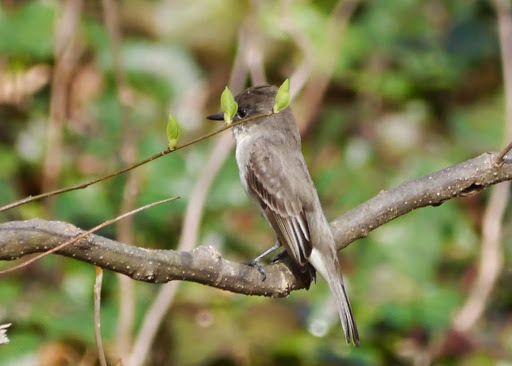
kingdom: Animalia
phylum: Chordata
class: Aves
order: Passeriformes
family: Tyrannidae
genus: Sayornis
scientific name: Sayornis phoebe
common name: Eastern phoebe
